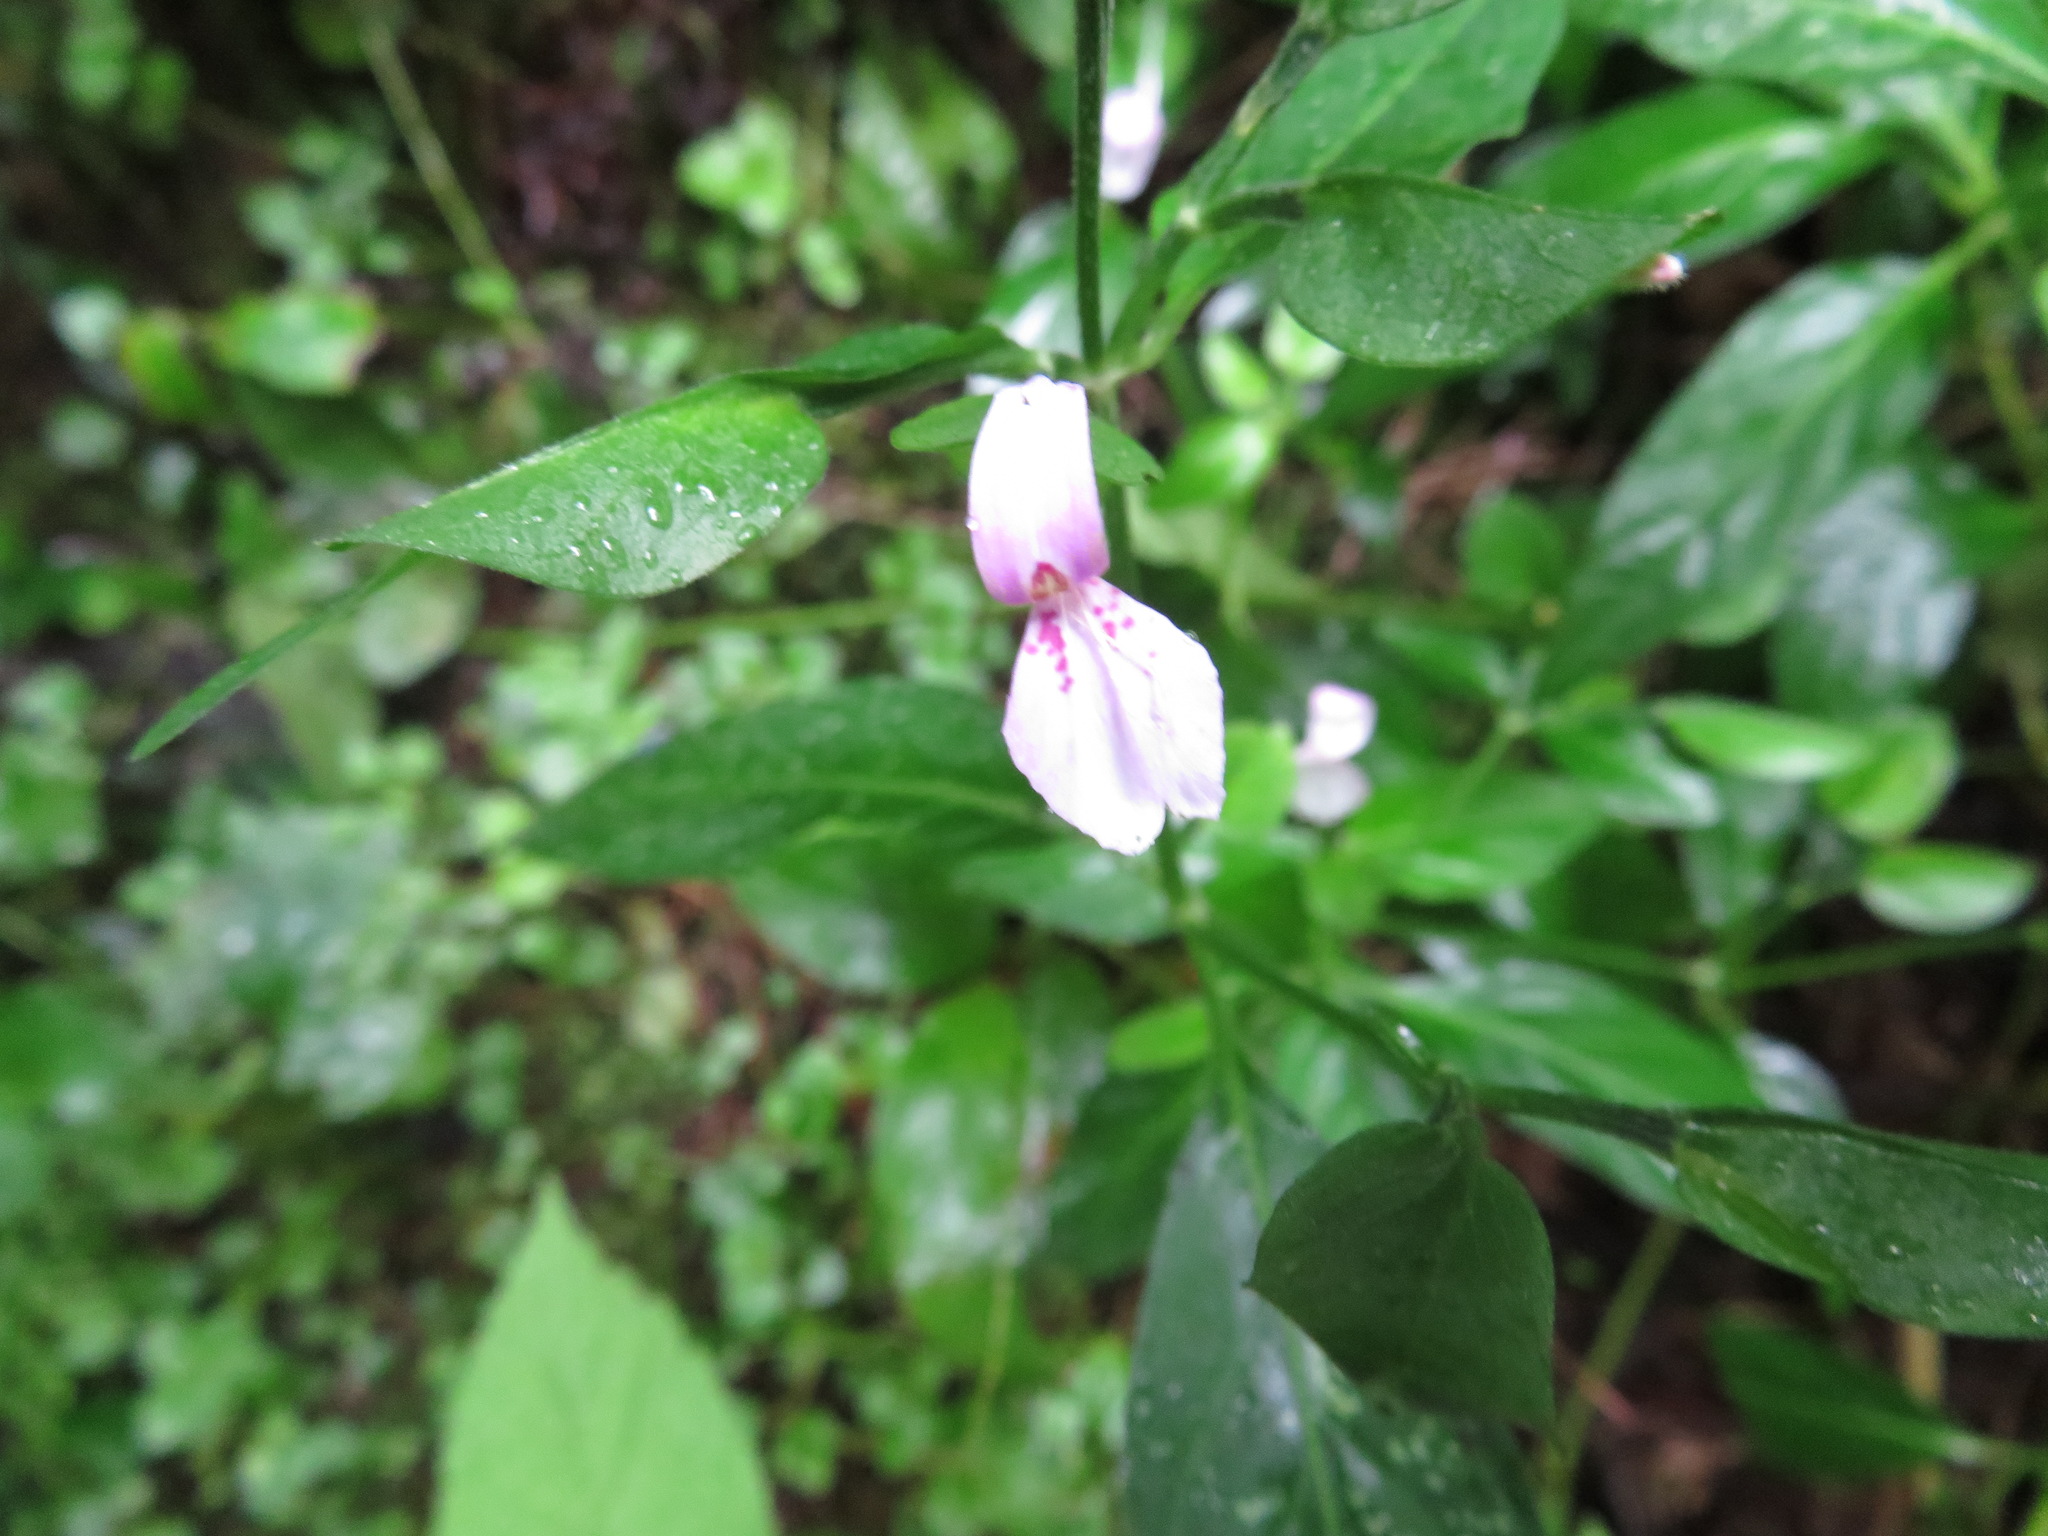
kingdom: Plantae
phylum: Tracheophyta
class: Magnoliopsida
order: Lamiales
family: Acanthaceae
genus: Dicliptera
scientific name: Dicliptera japonica
